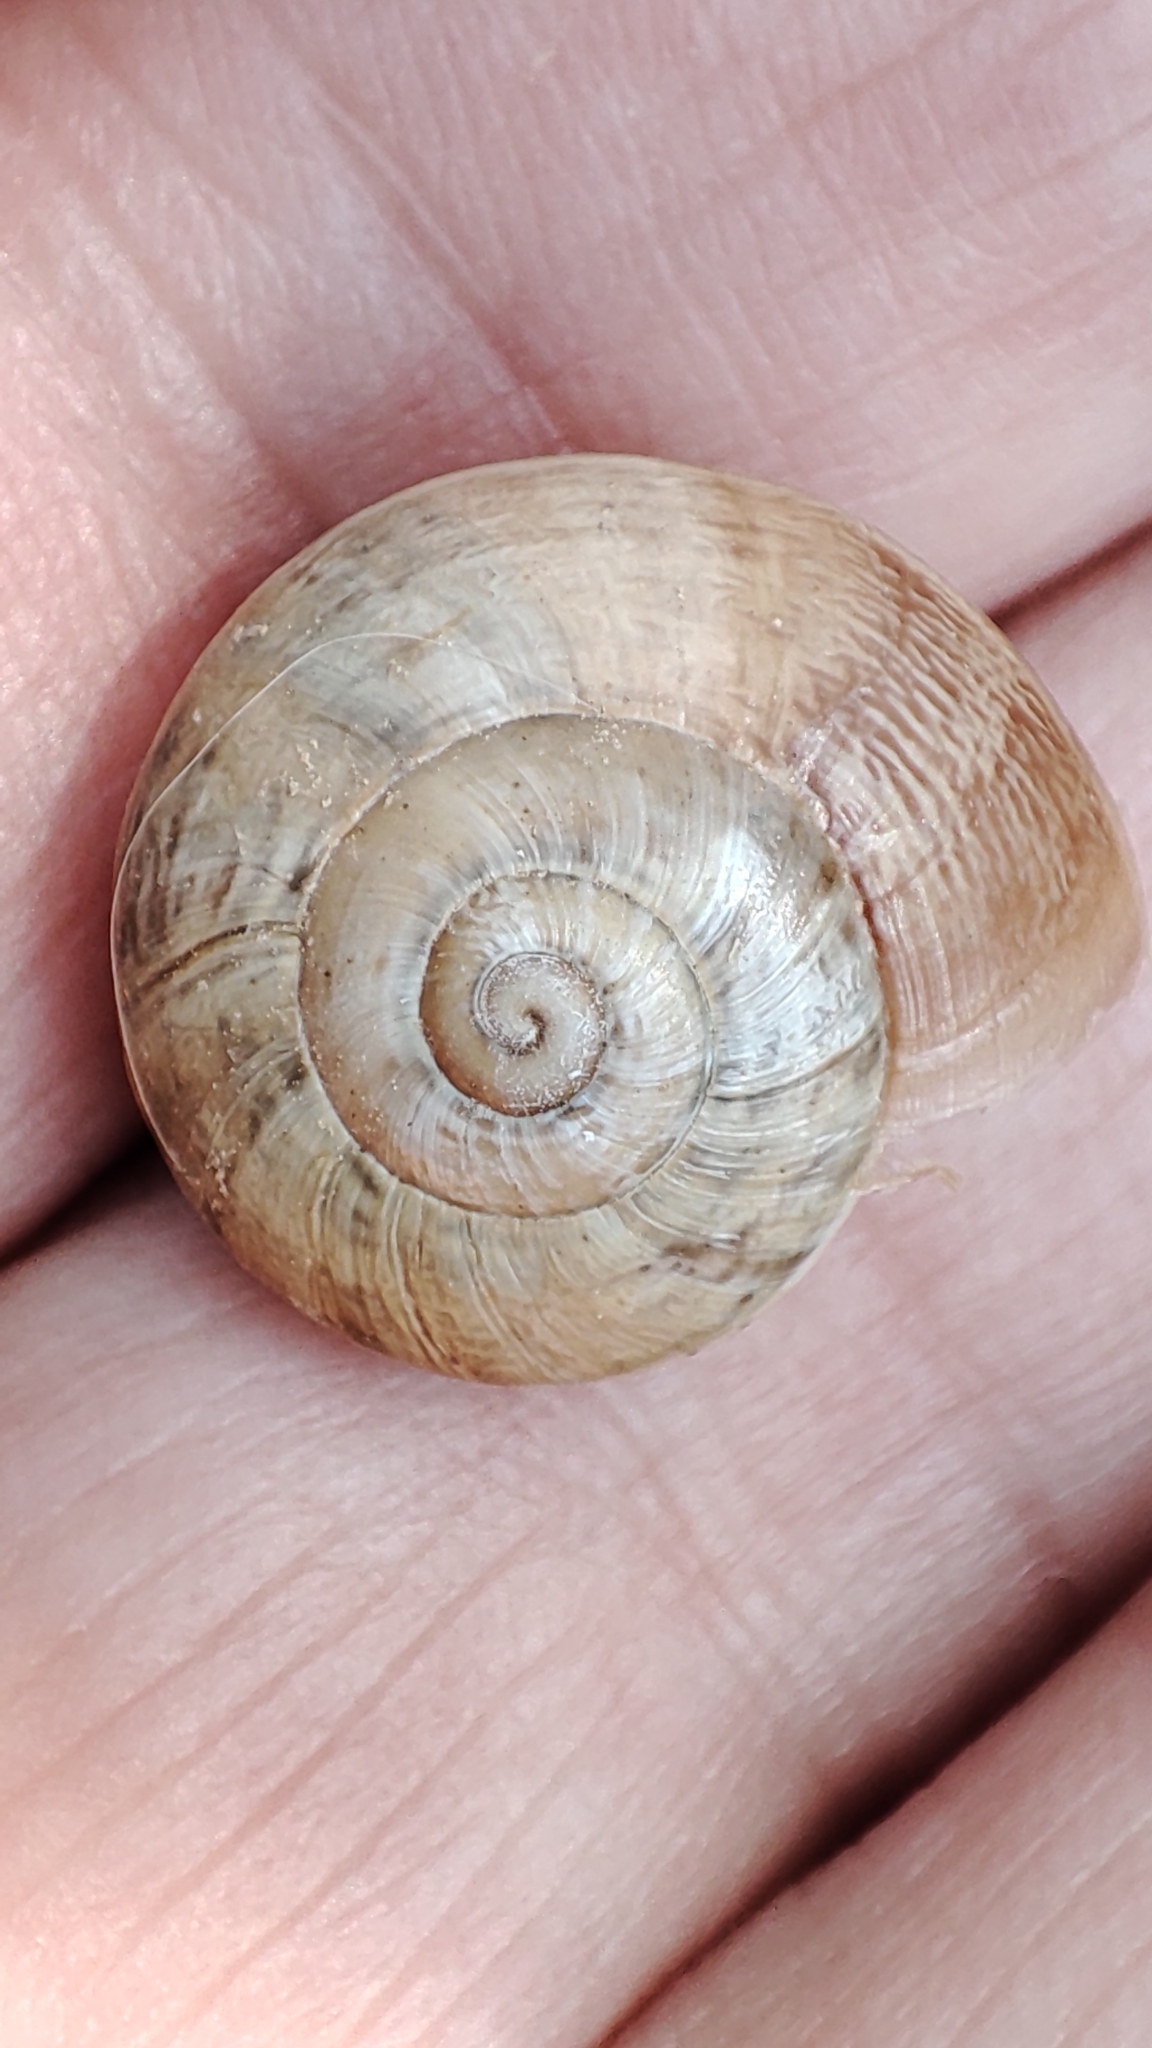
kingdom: Animalia
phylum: Mollusca
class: Gastropoda
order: Stylommatophora
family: Helicidae
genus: Eobania
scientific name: Eobania vermiculata
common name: Chocolateband snail
